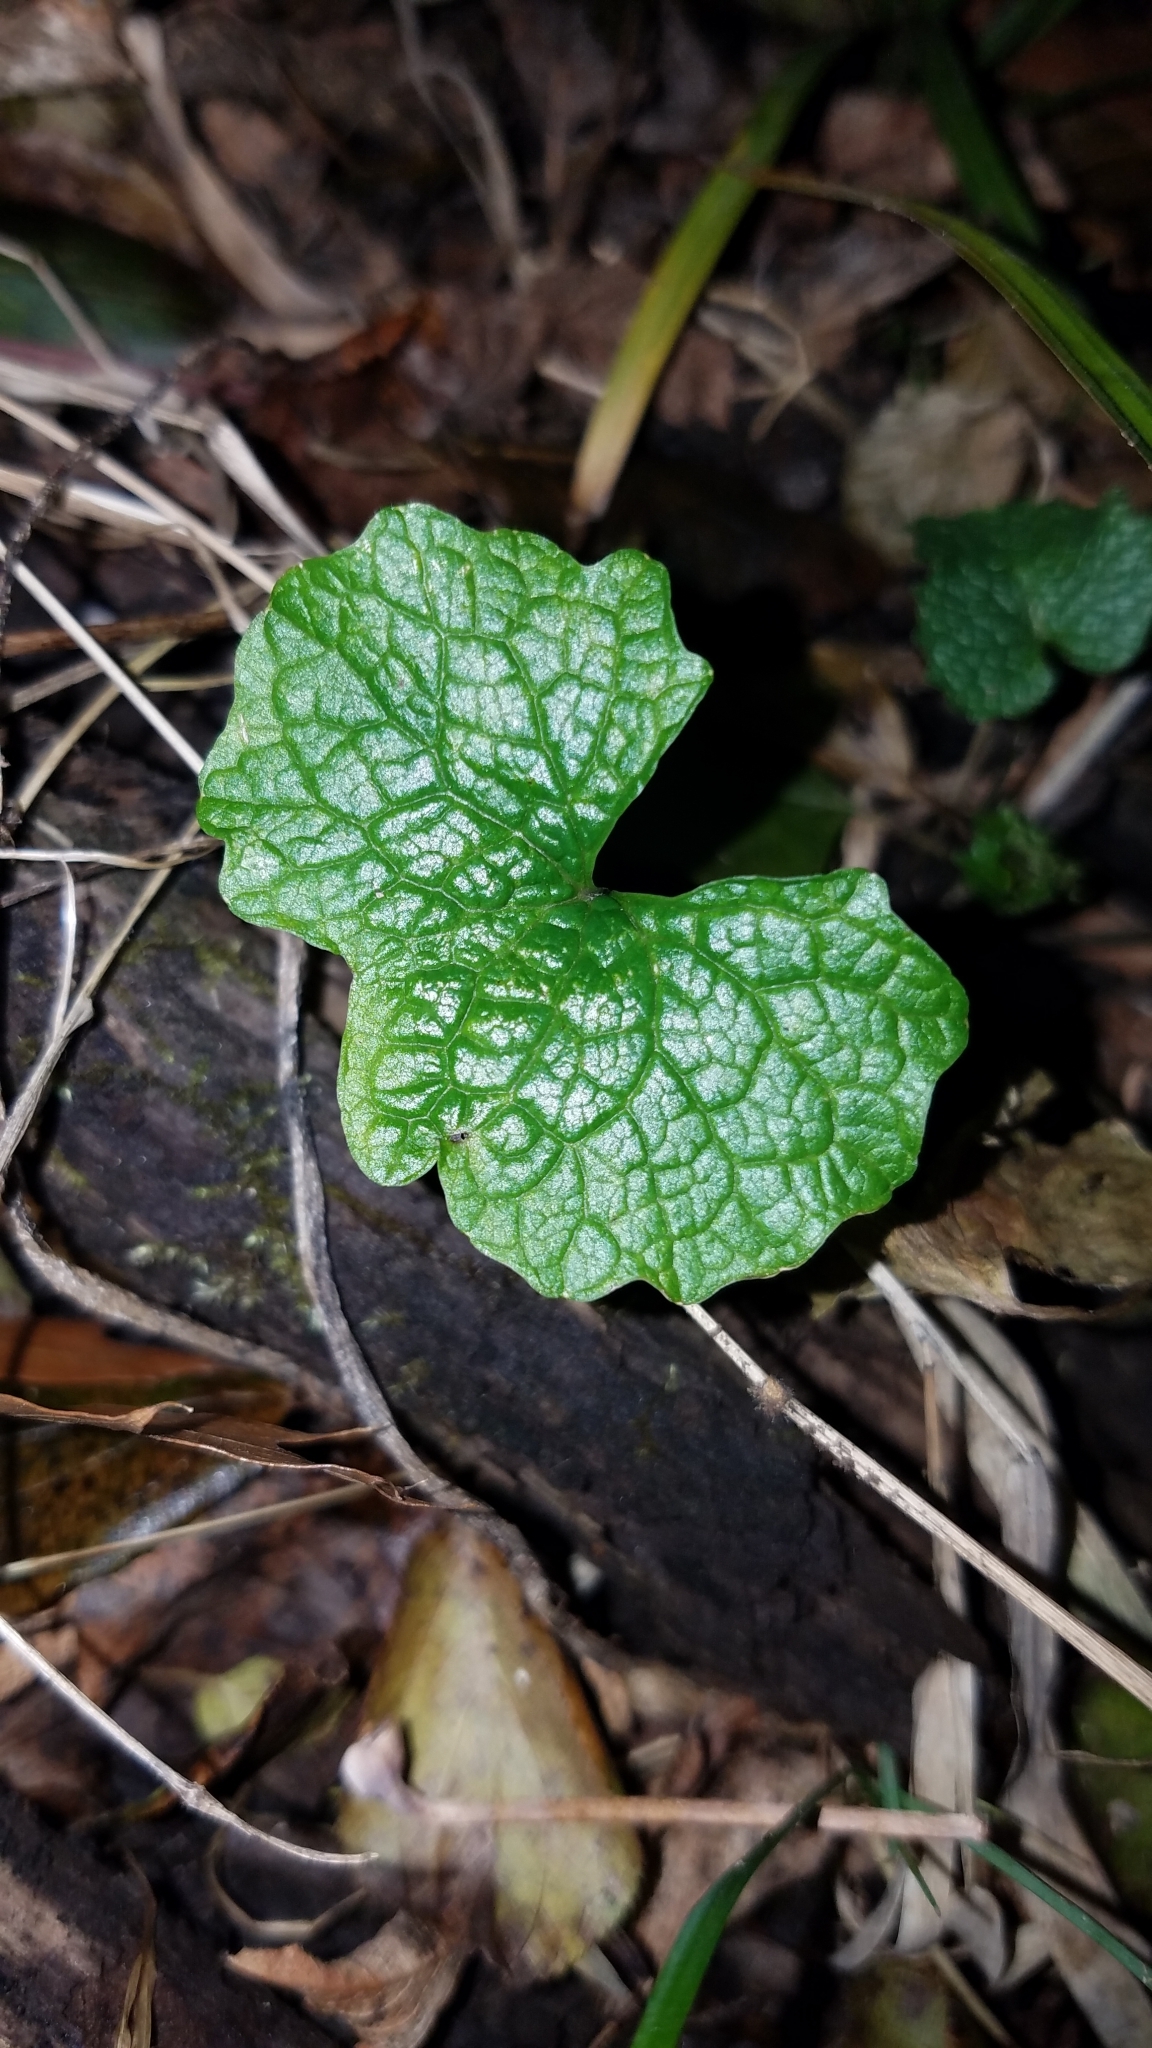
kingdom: Plantae
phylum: Tracheophyta
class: Magnoliopsida
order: Brassicales
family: Brassicaceae
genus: Alliaria
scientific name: Alliaria petiolata
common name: Garlic mustard
